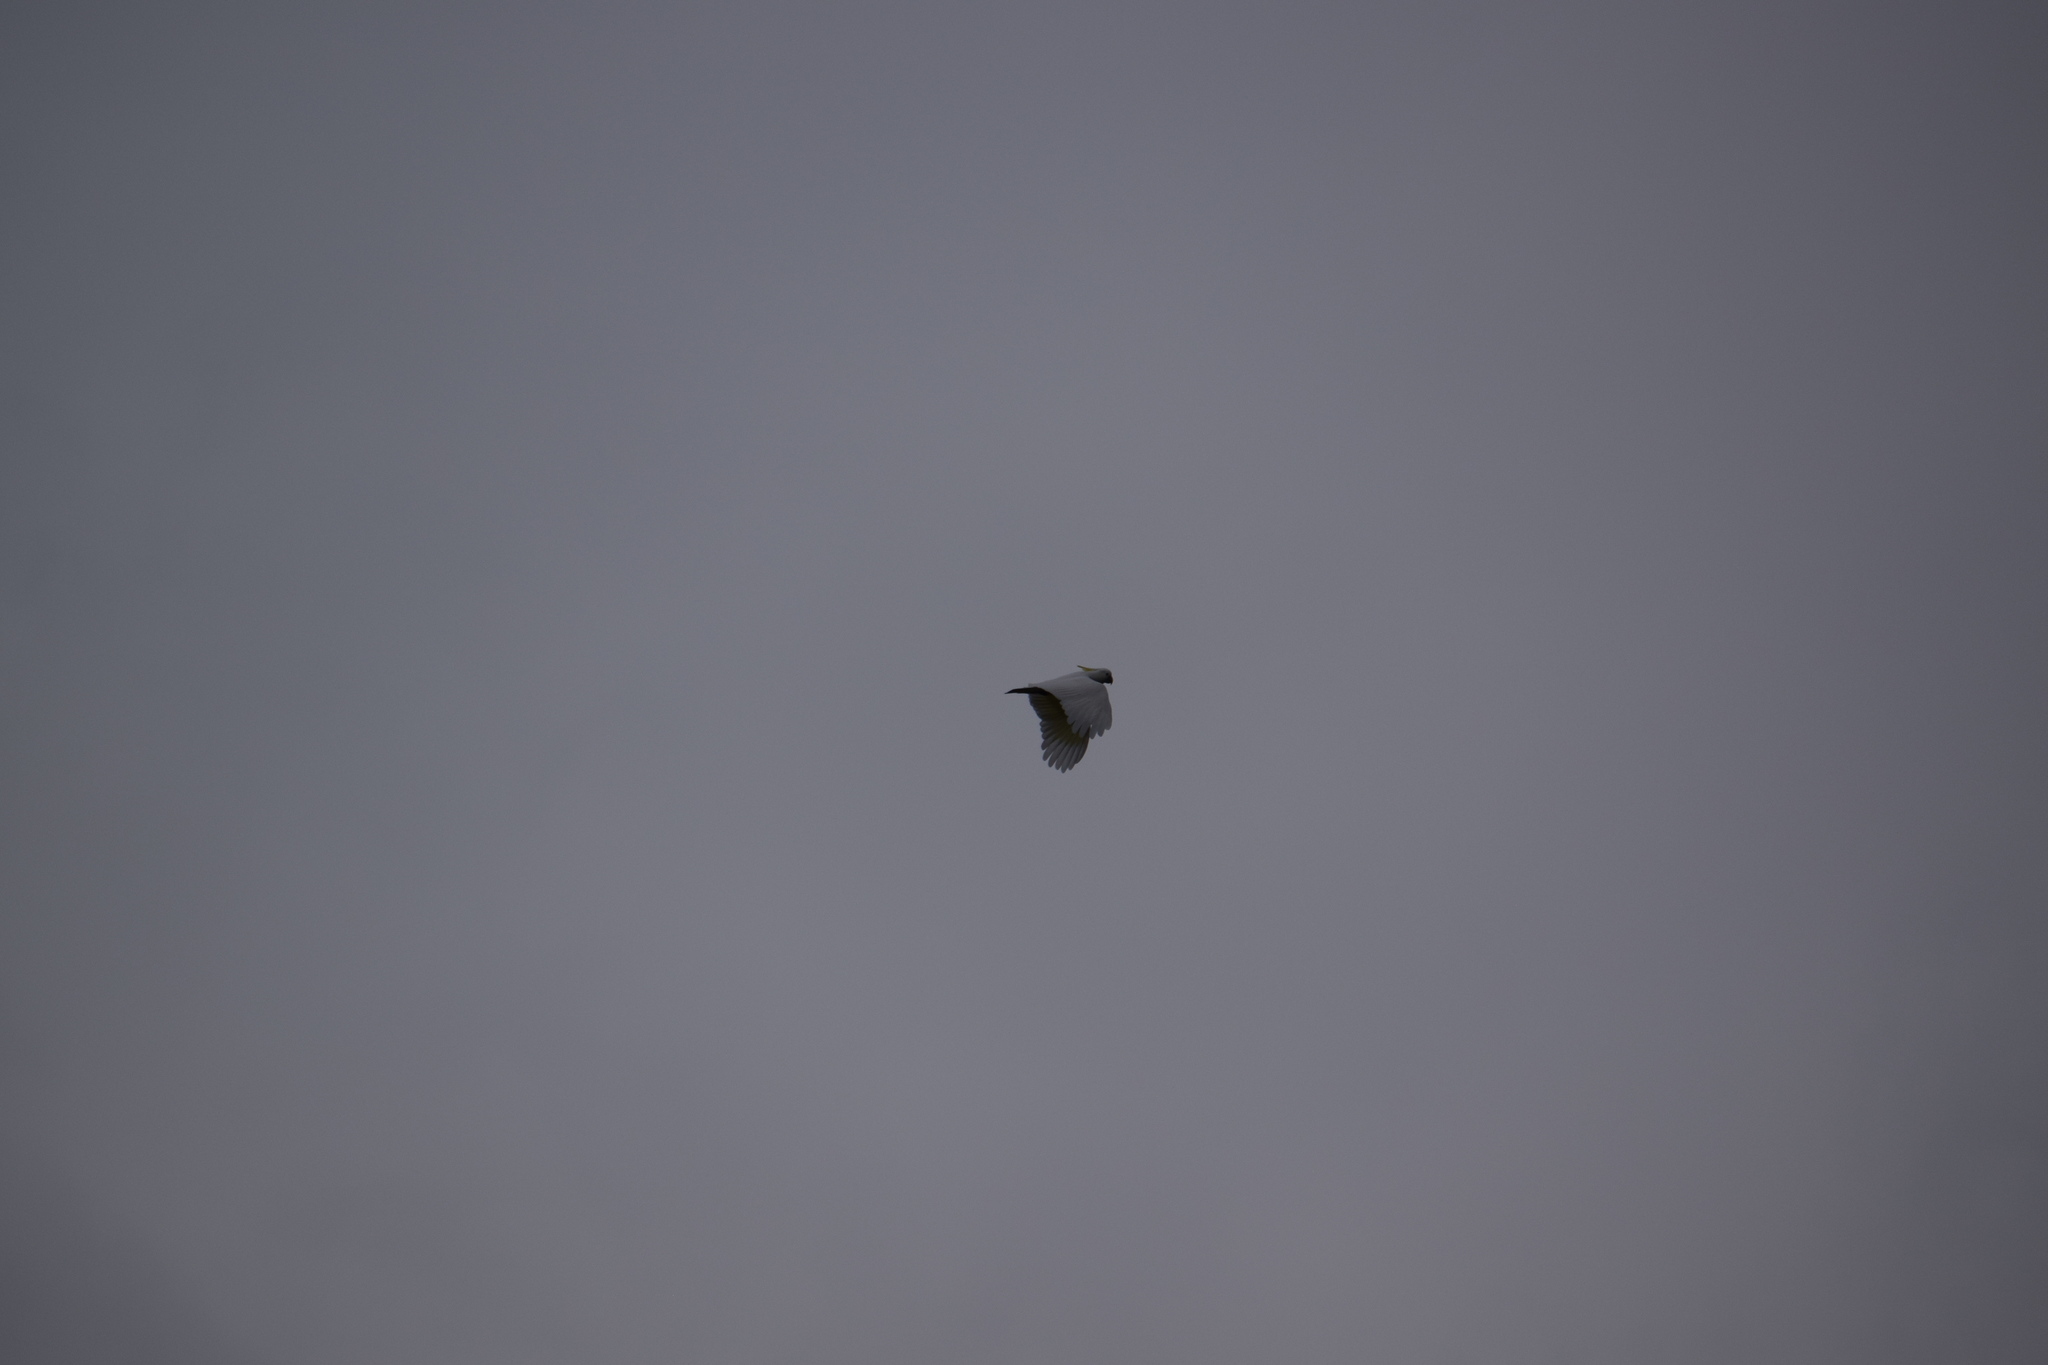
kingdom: Animalia
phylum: Chordata
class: Aves
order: Psittaciformes
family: Psittacidae
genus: Cacatua
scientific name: Cacatua galerita
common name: Sulphur-crested cockatoo
